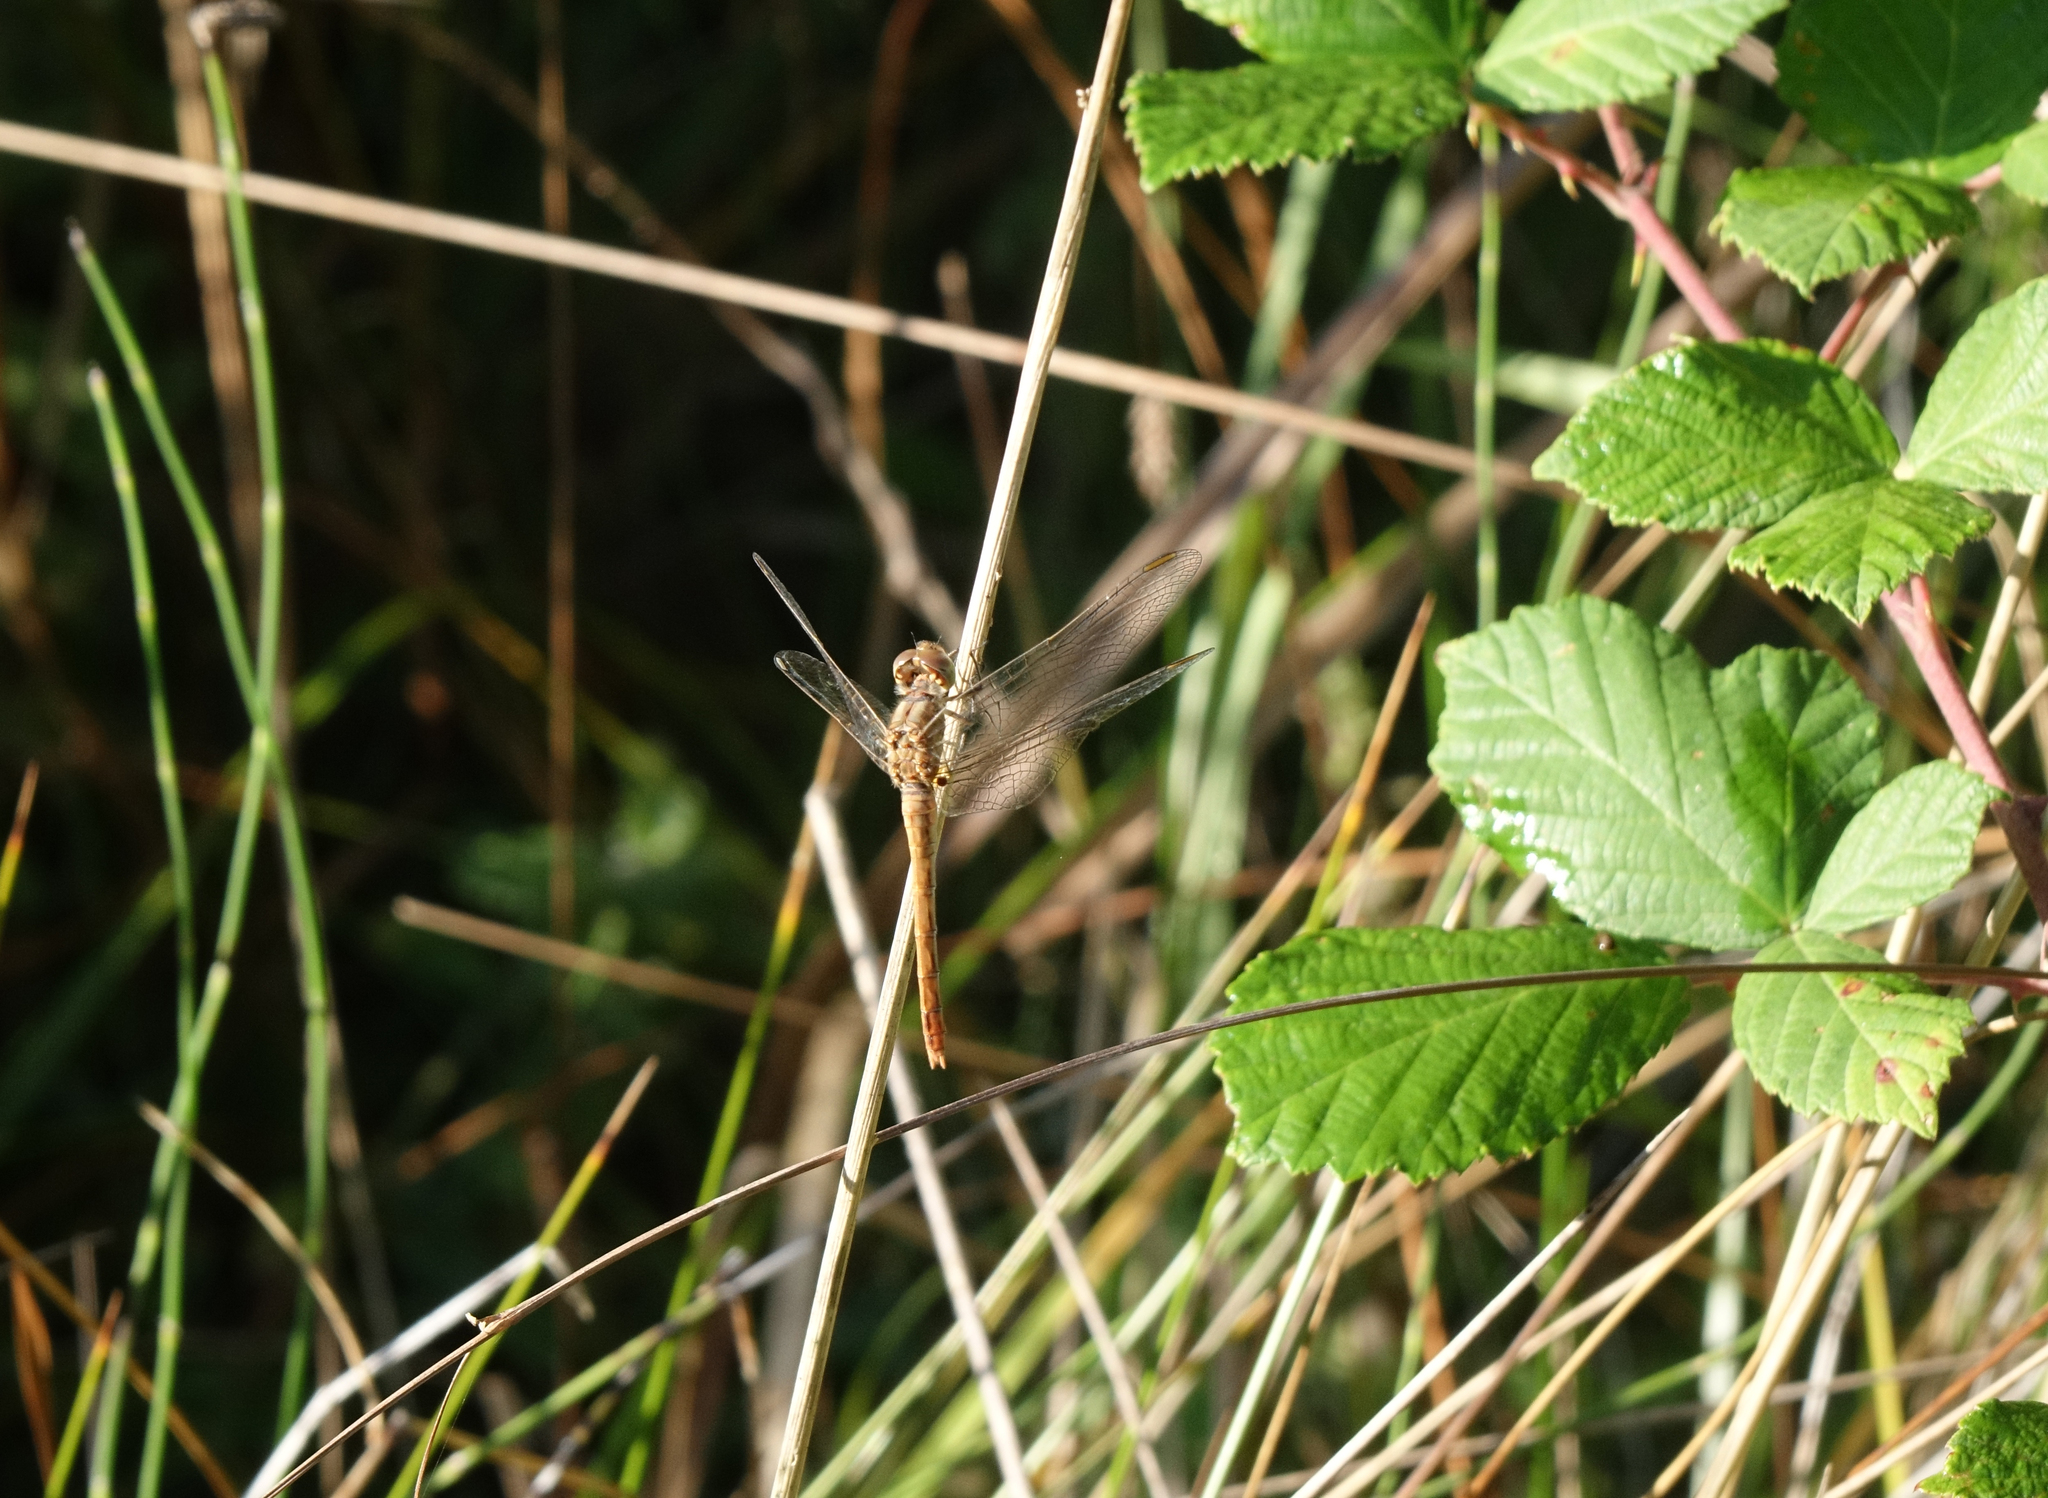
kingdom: Animalia
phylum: Arthropoda
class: Insecta
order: Odonata
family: Libellulidae
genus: Sympetrum
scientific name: Sympetrum meridionale
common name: Southern darter
